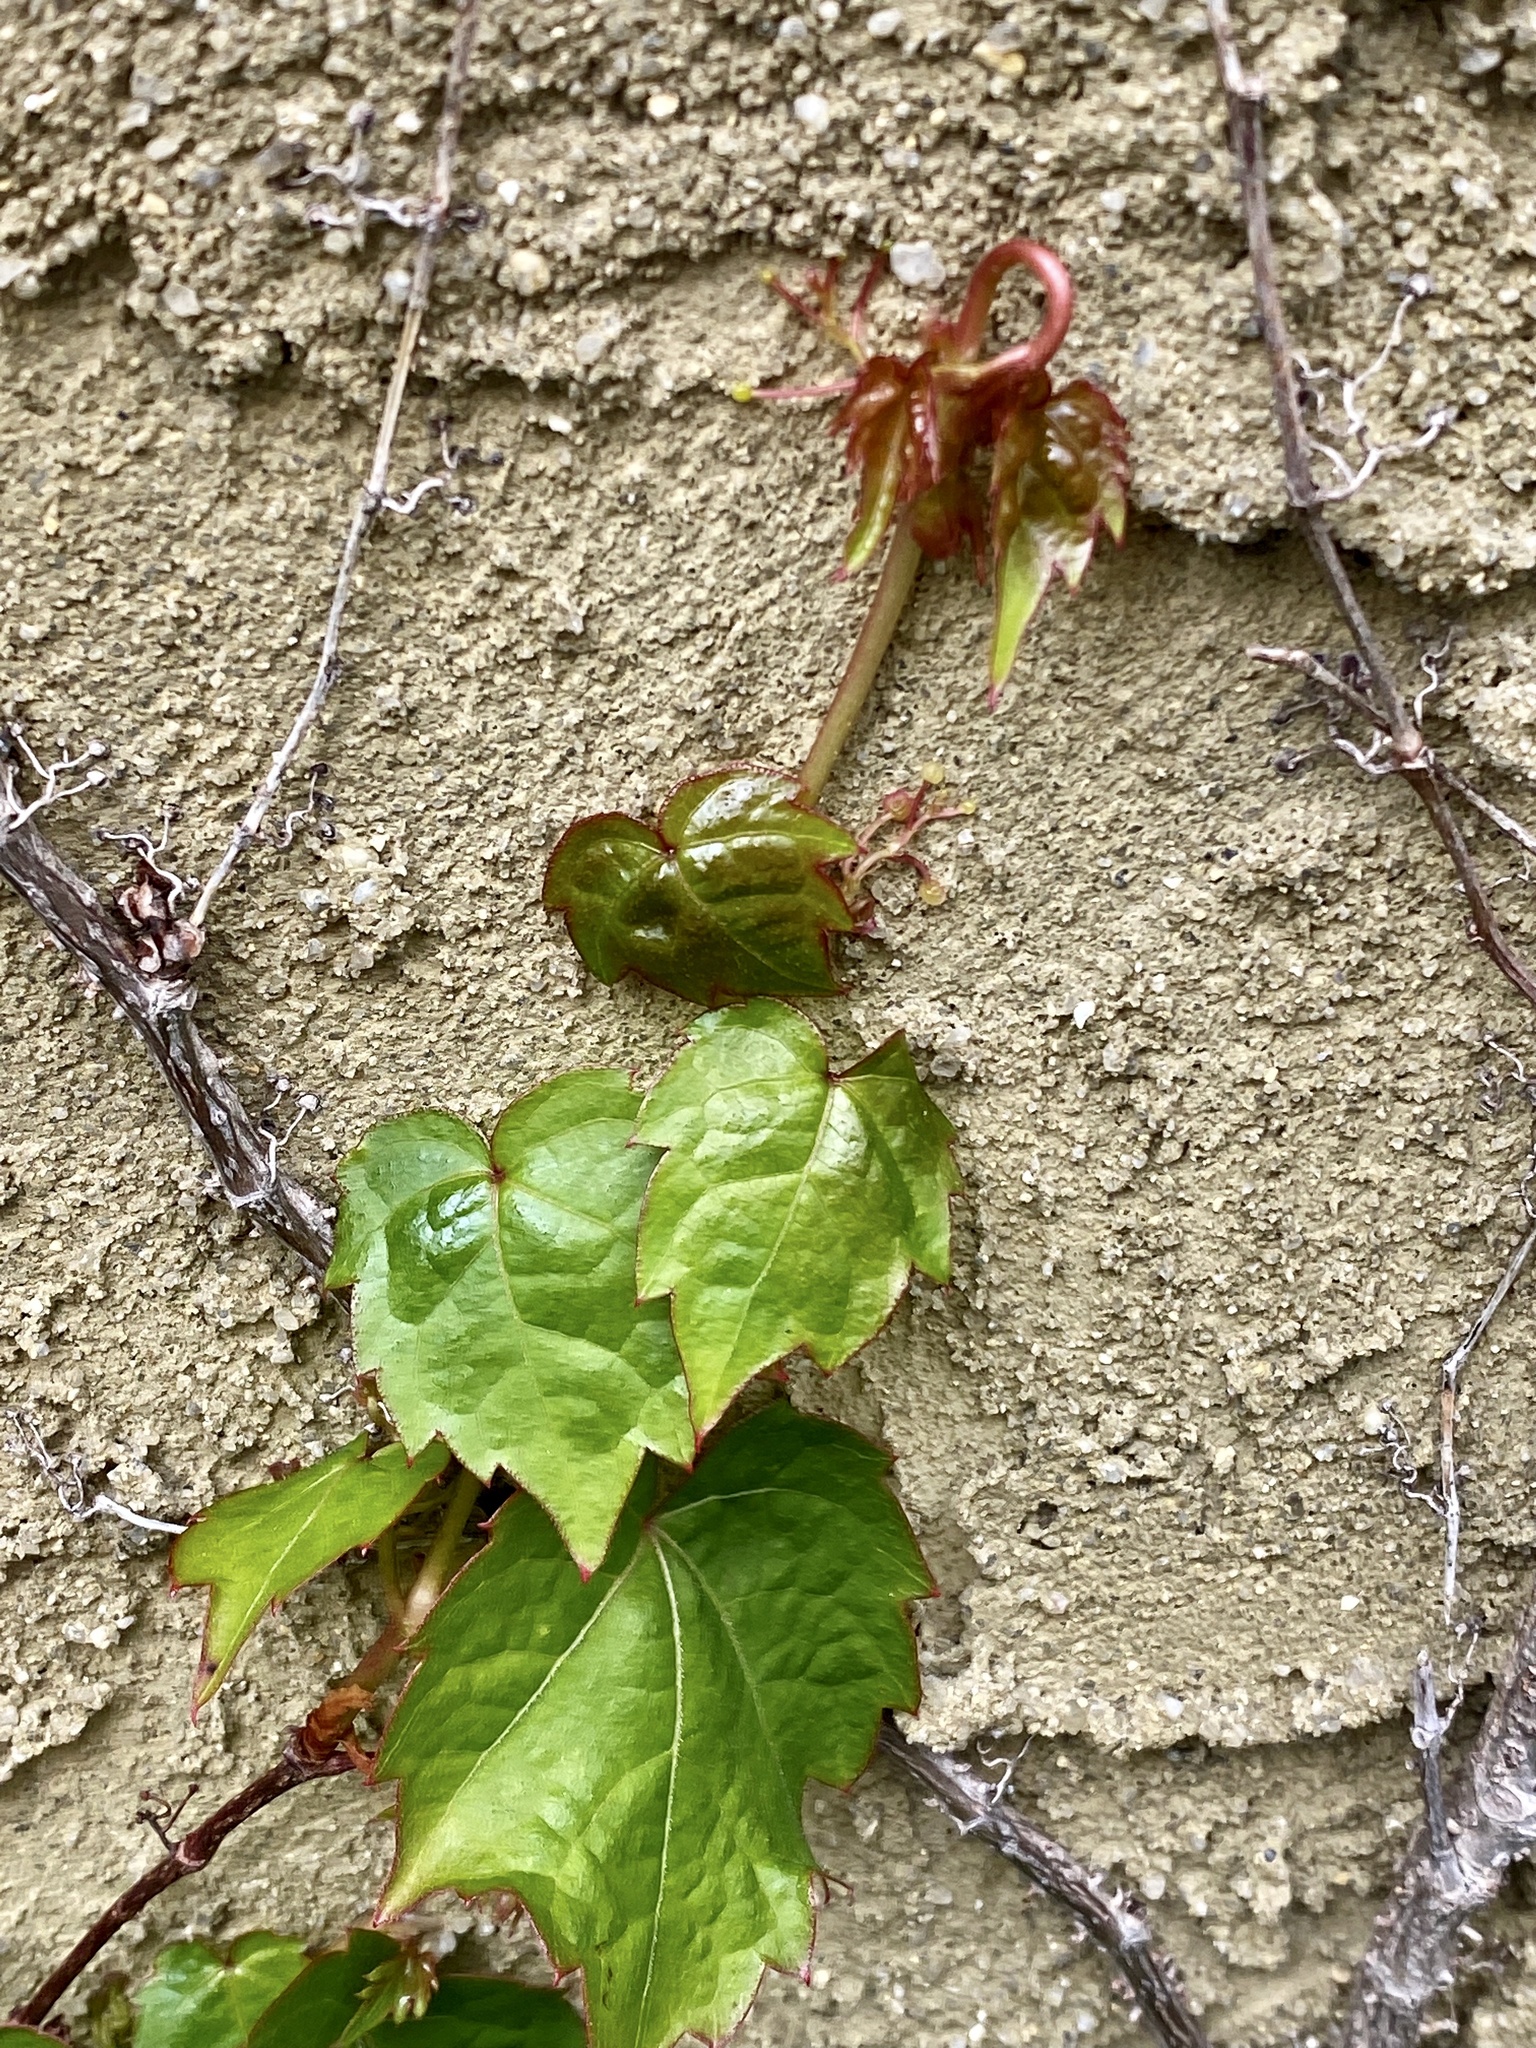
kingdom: Plantae
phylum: Tracheophyta
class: Magnoliopsida
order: Vitales
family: Vitaceae
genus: Parthenocissus
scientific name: Parthenocissus tricuspidata
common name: Boston ivy
